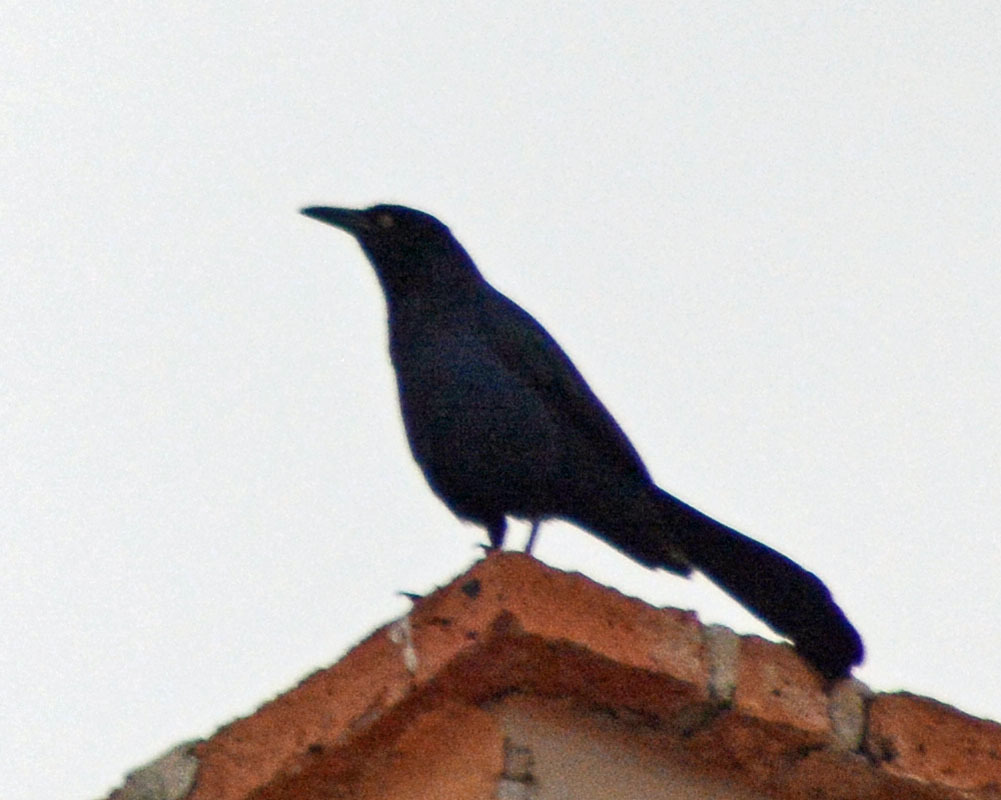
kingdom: Animalia
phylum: Chordata
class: Aves
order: Passeriformes
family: Icteridae
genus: Quiscalus
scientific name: Quiscalus mexicanus
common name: Great-tailed grackle
